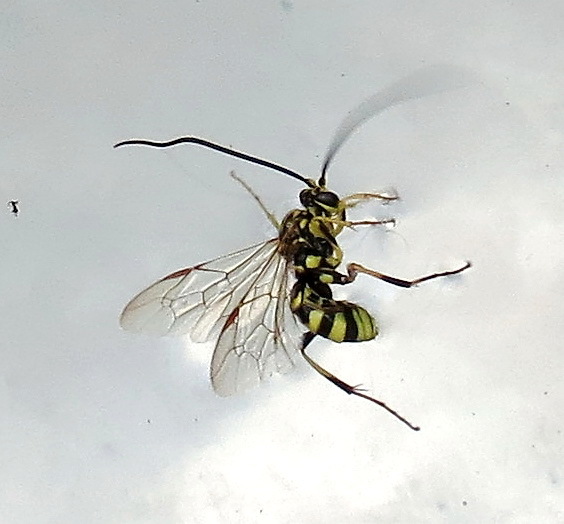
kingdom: Animalia
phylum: Arthropoda
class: Insecta
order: Hymenoptera
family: Ichneumonidae
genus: Banchus
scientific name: Banchus
